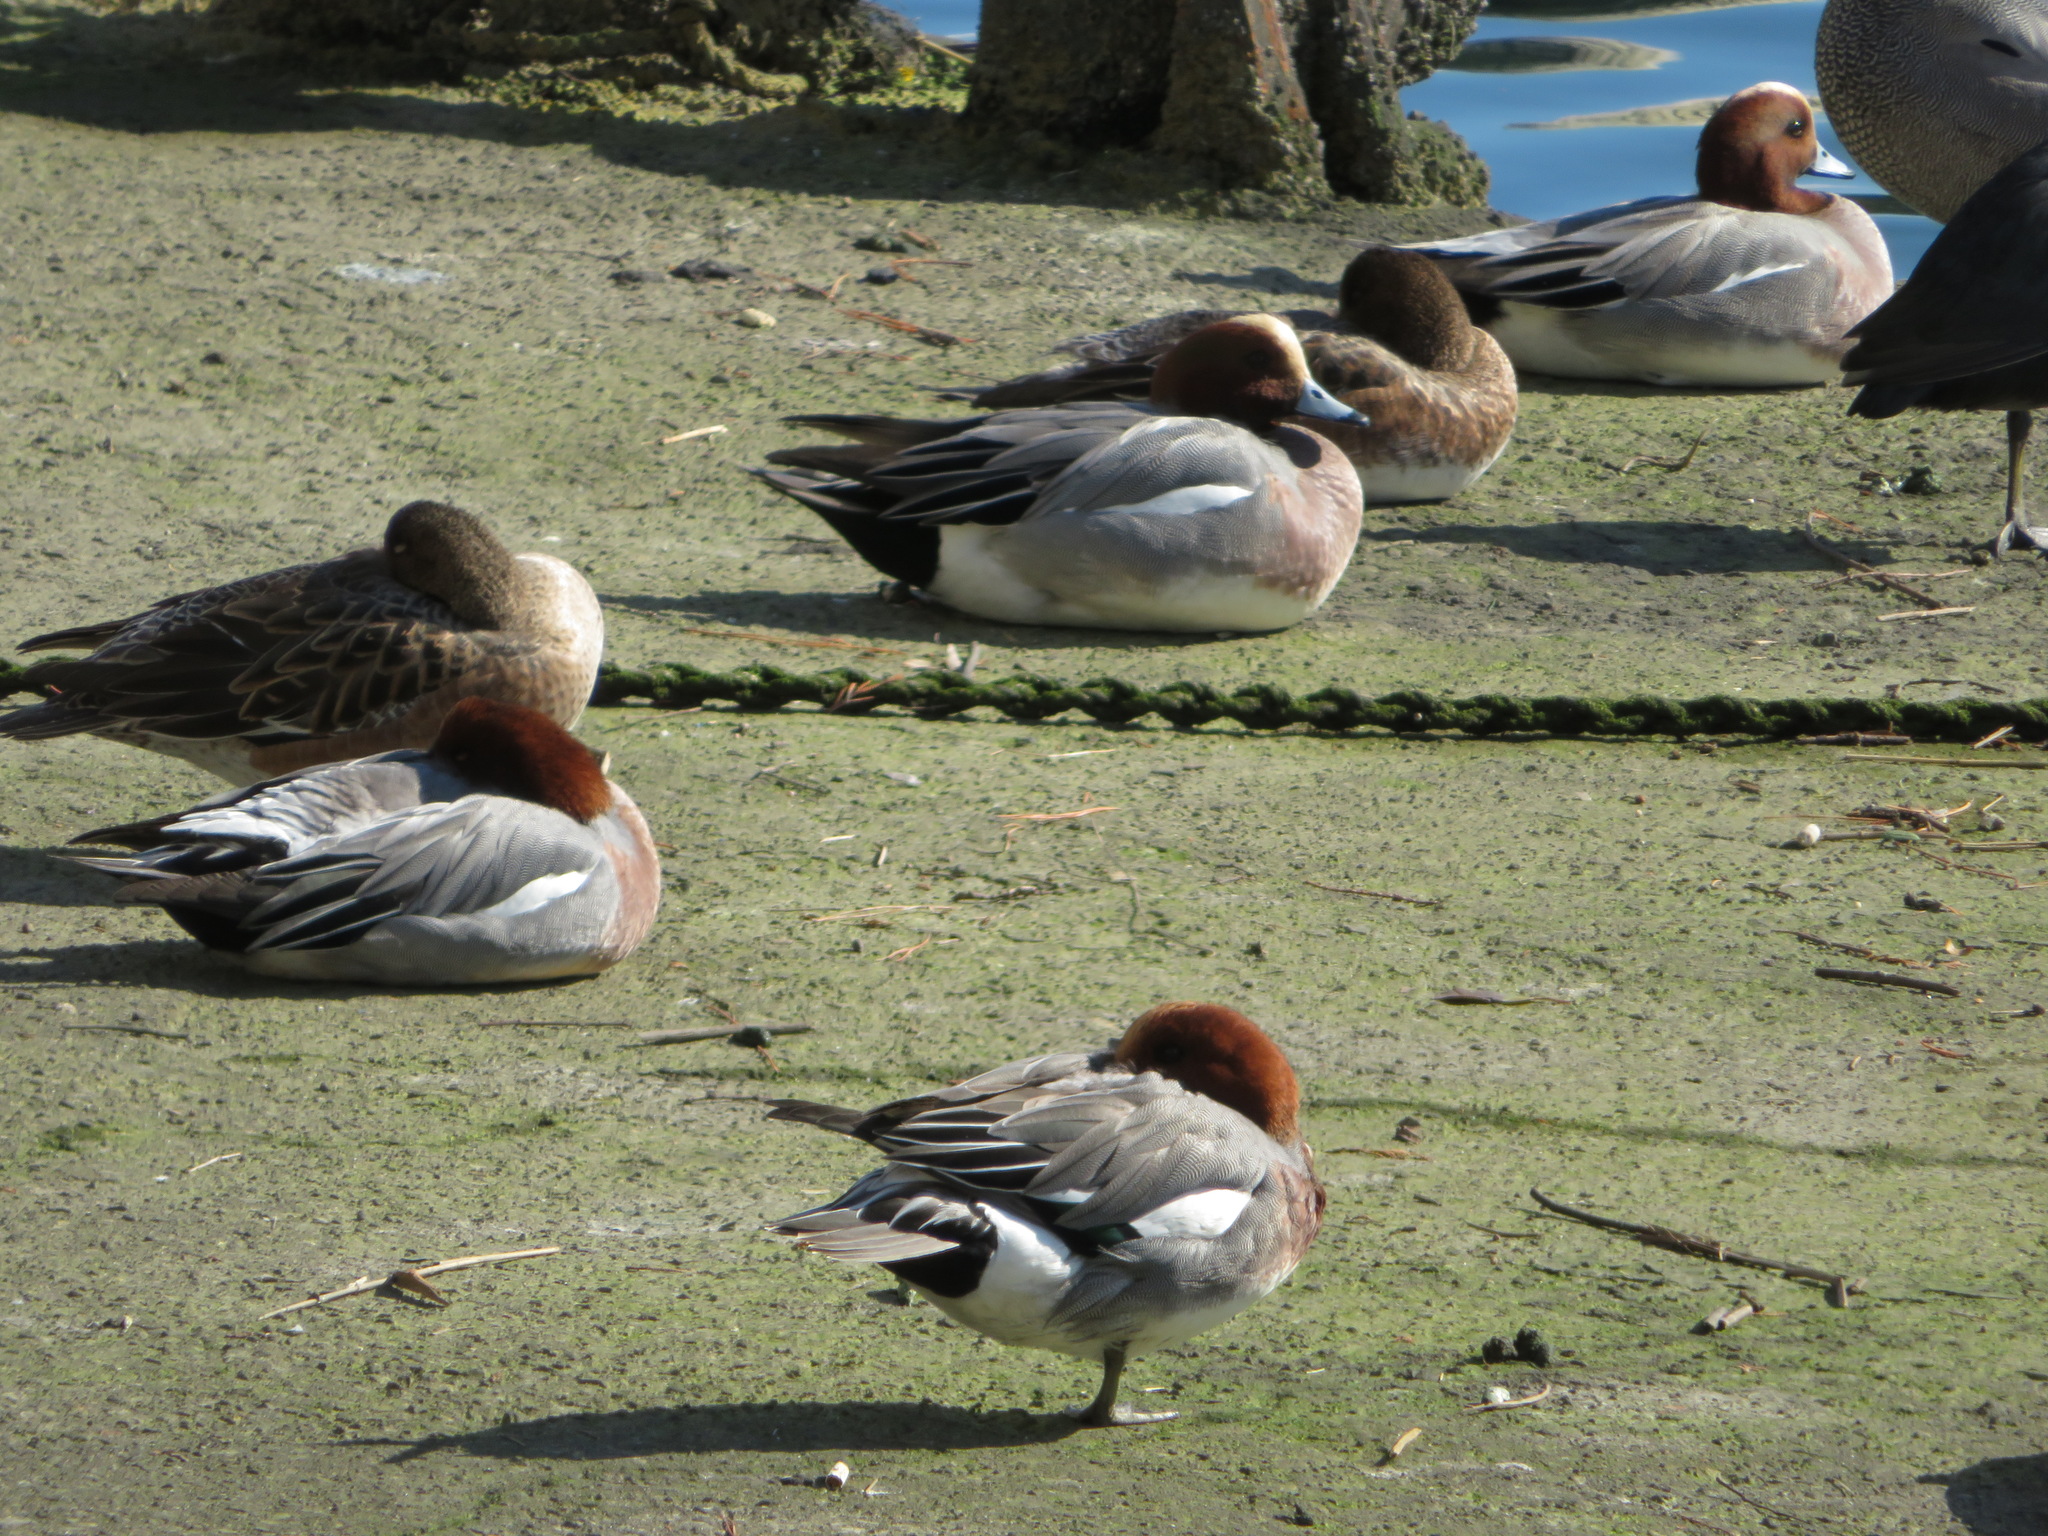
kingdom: Animalia
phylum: Chordata
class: Aves
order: Anseriformes
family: Anatidae
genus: Mareca
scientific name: Mareca penelope
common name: Eurasian wigeon
